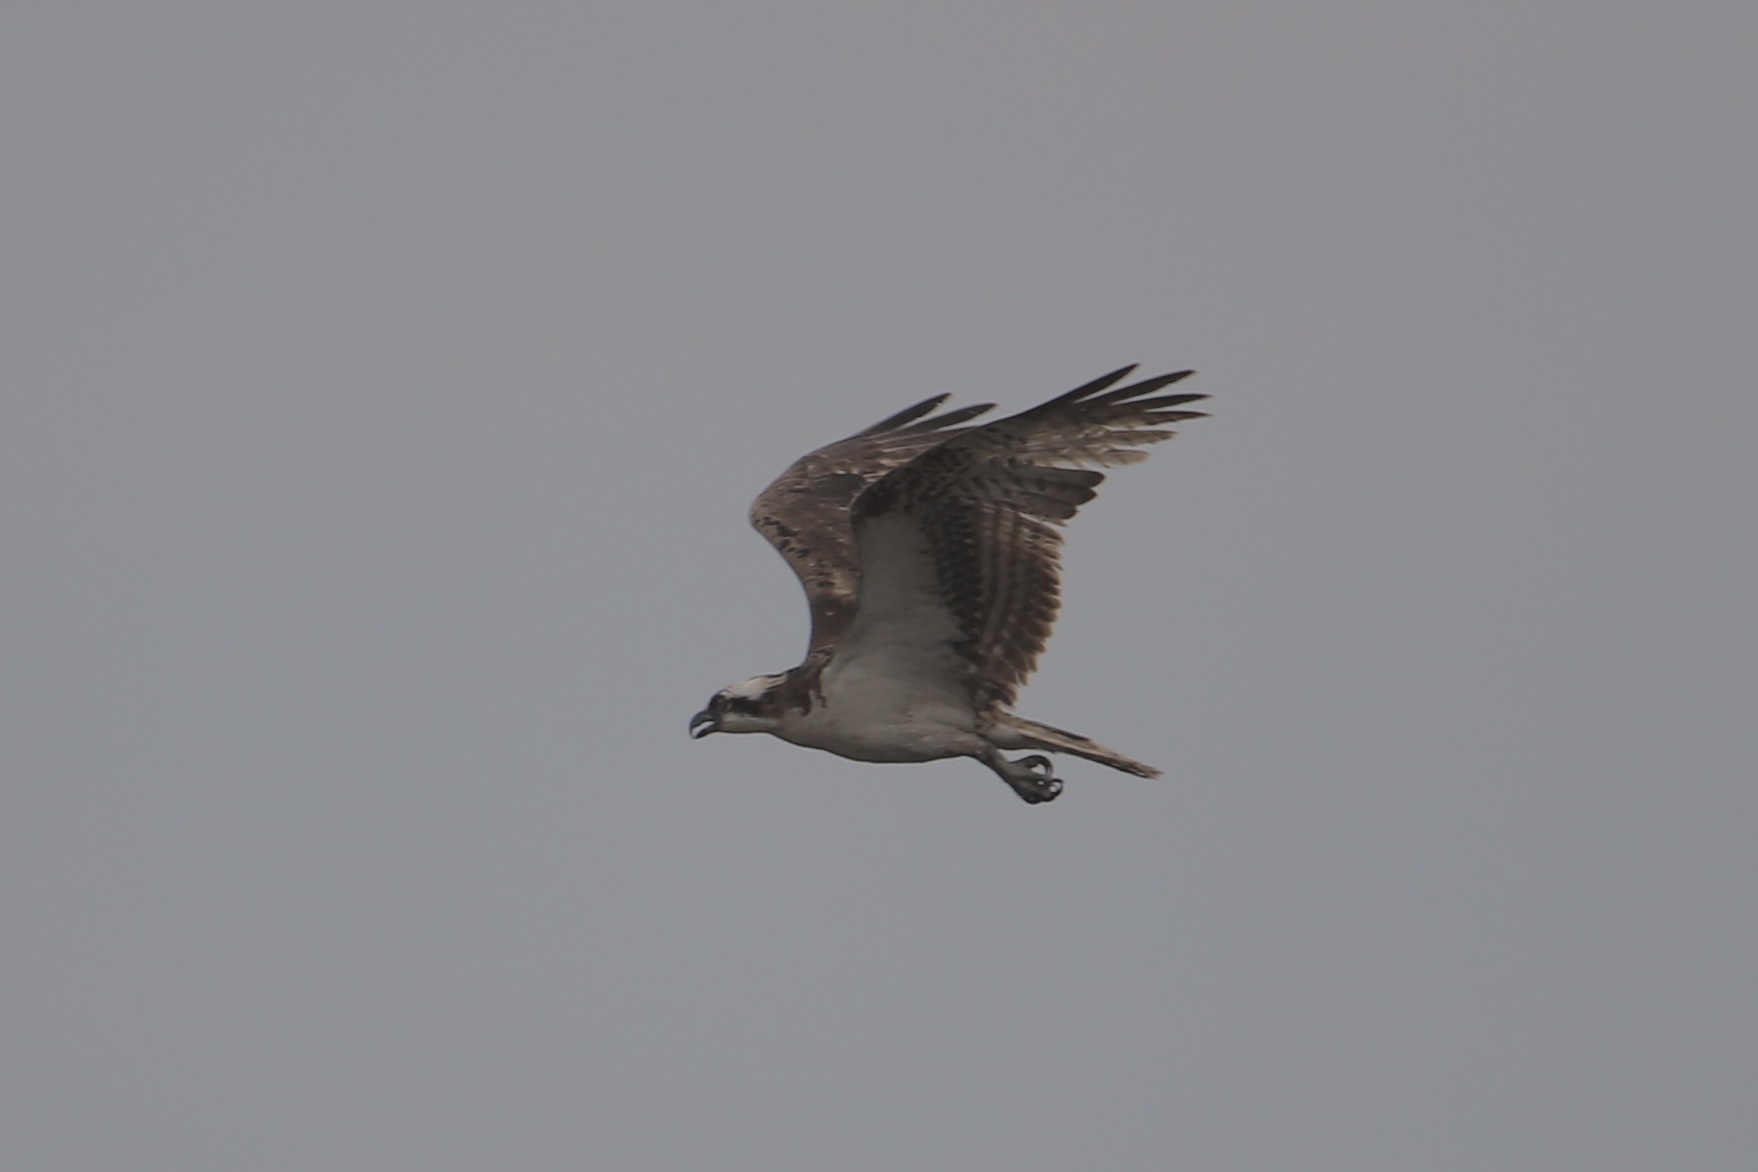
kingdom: Animalia
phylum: Chordata
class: Aves
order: Accipitriformes
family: Pandionidae
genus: Pandion
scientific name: Pandion haliaetus
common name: Osprey
